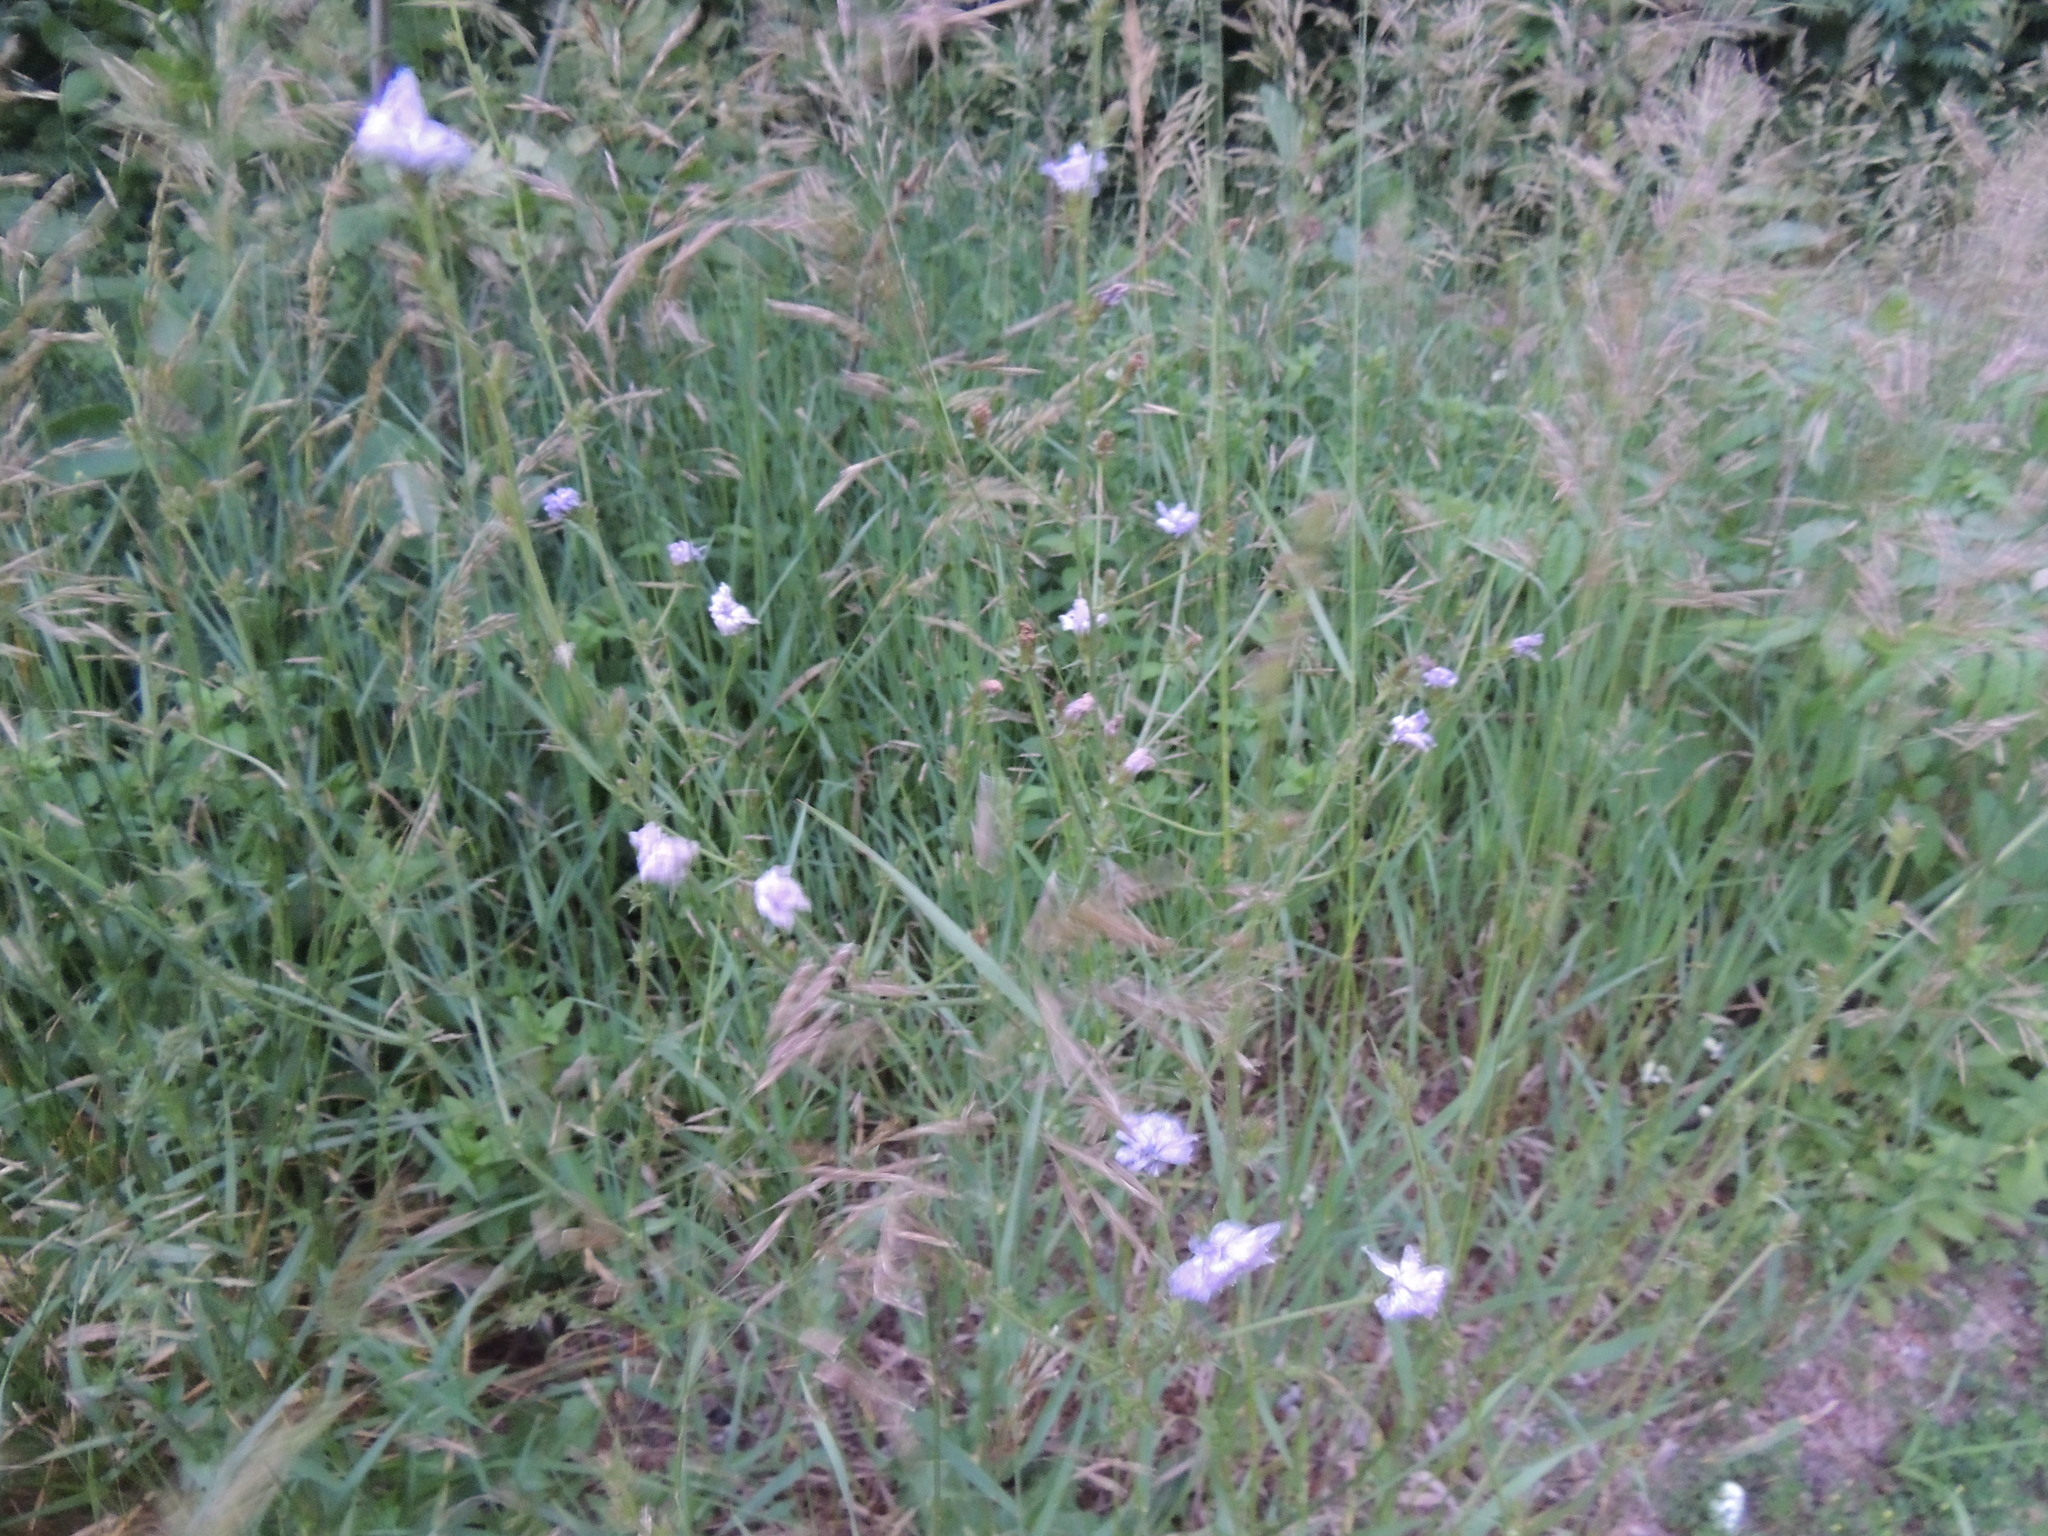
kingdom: Plantae
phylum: Tracheophyta
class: Magnoliopsida
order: Asterales
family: Asteraceae
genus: Cichorium
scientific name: Cichorium intybus
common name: Chicory
